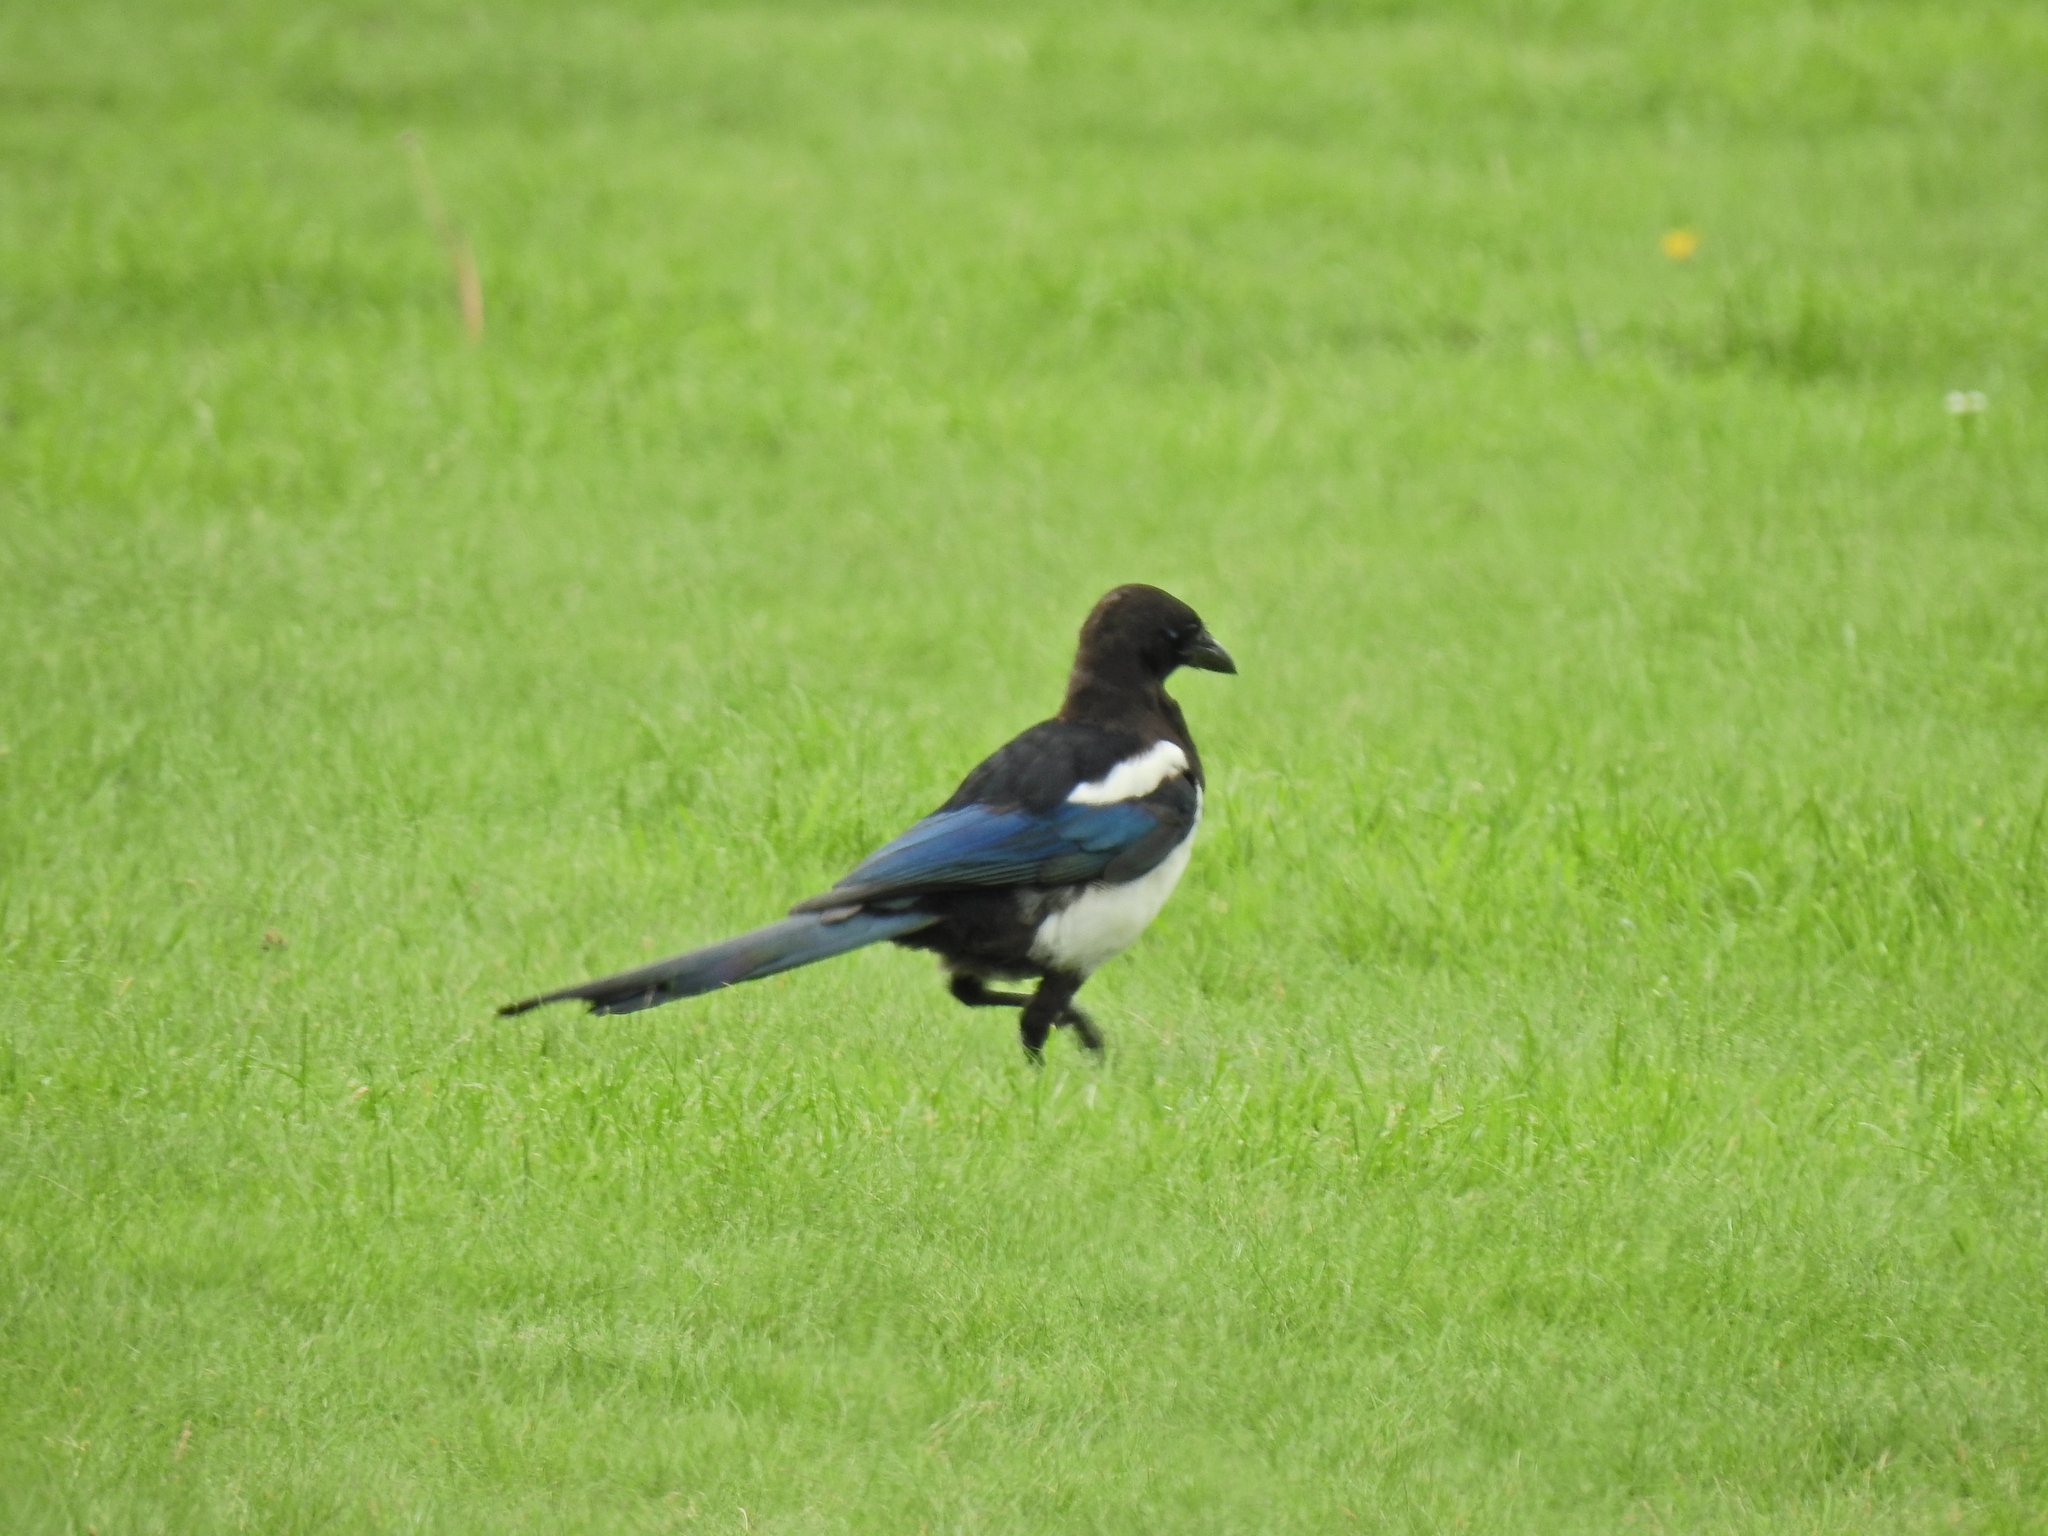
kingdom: Animalia
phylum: Chordata
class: Aves
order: Passeriformes
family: Corvidae
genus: Pica
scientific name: Pica pica
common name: Eurasian magpie
